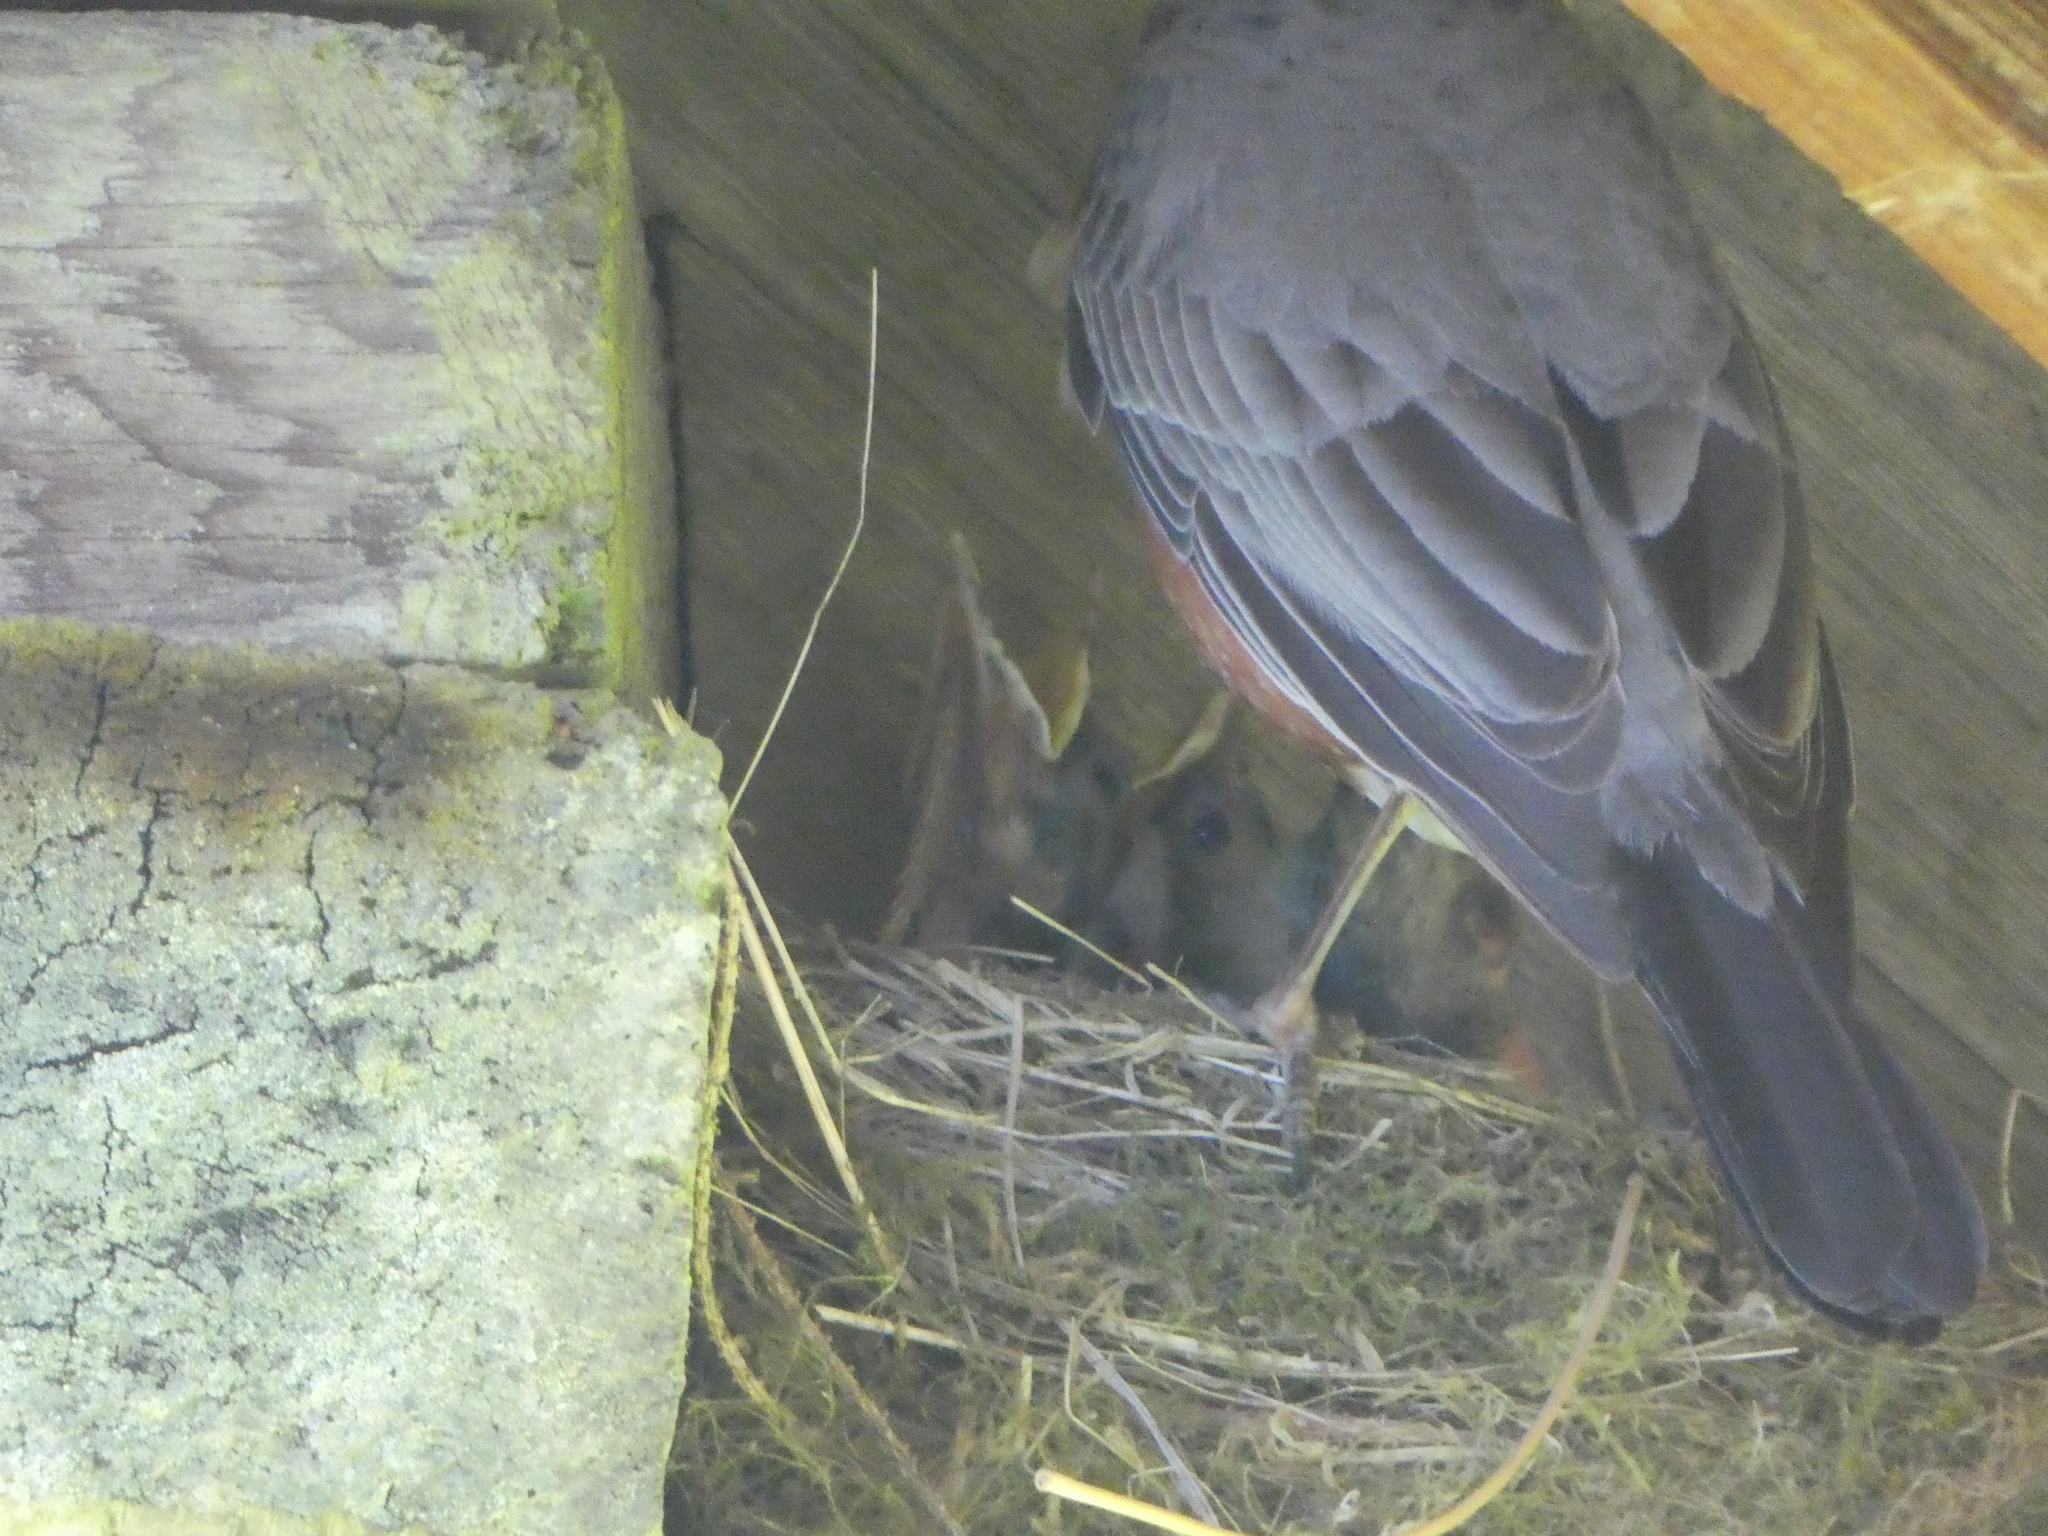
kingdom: Animalia
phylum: Chordata
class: Aves
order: Passeriformes
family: Turdidae
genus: Turdus
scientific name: Turdus migratorius
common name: American robin
